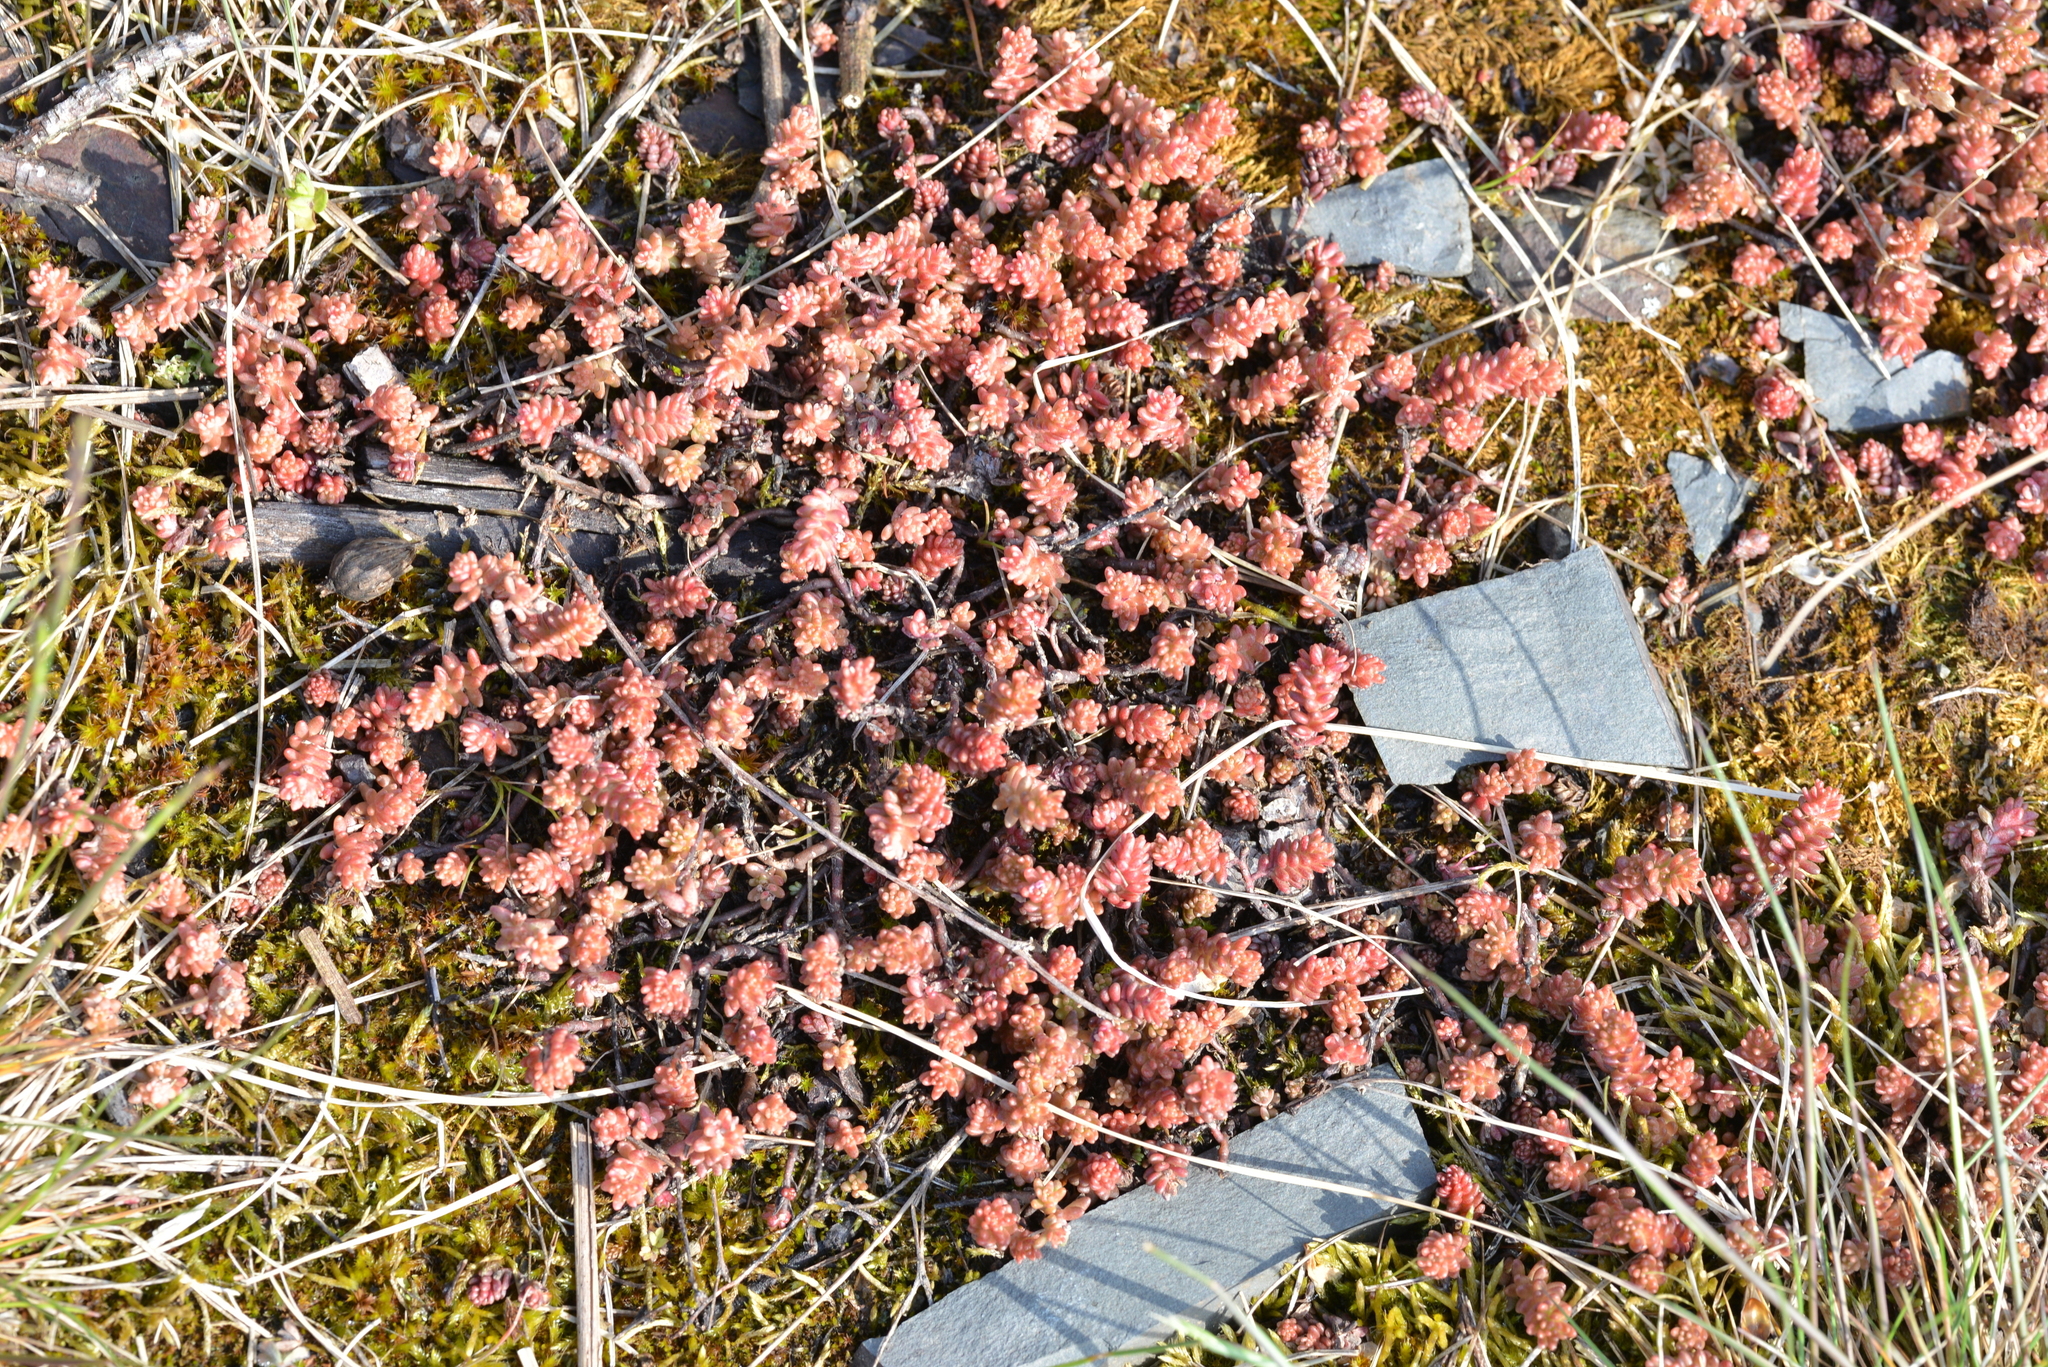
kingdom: Plantae
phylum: Tracheophyta
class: Magnoliopsida
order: Saxifragales
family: Crassulaceae
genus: Sedum
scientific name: Sedum sexangulare
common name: Tasteless stonecrop
